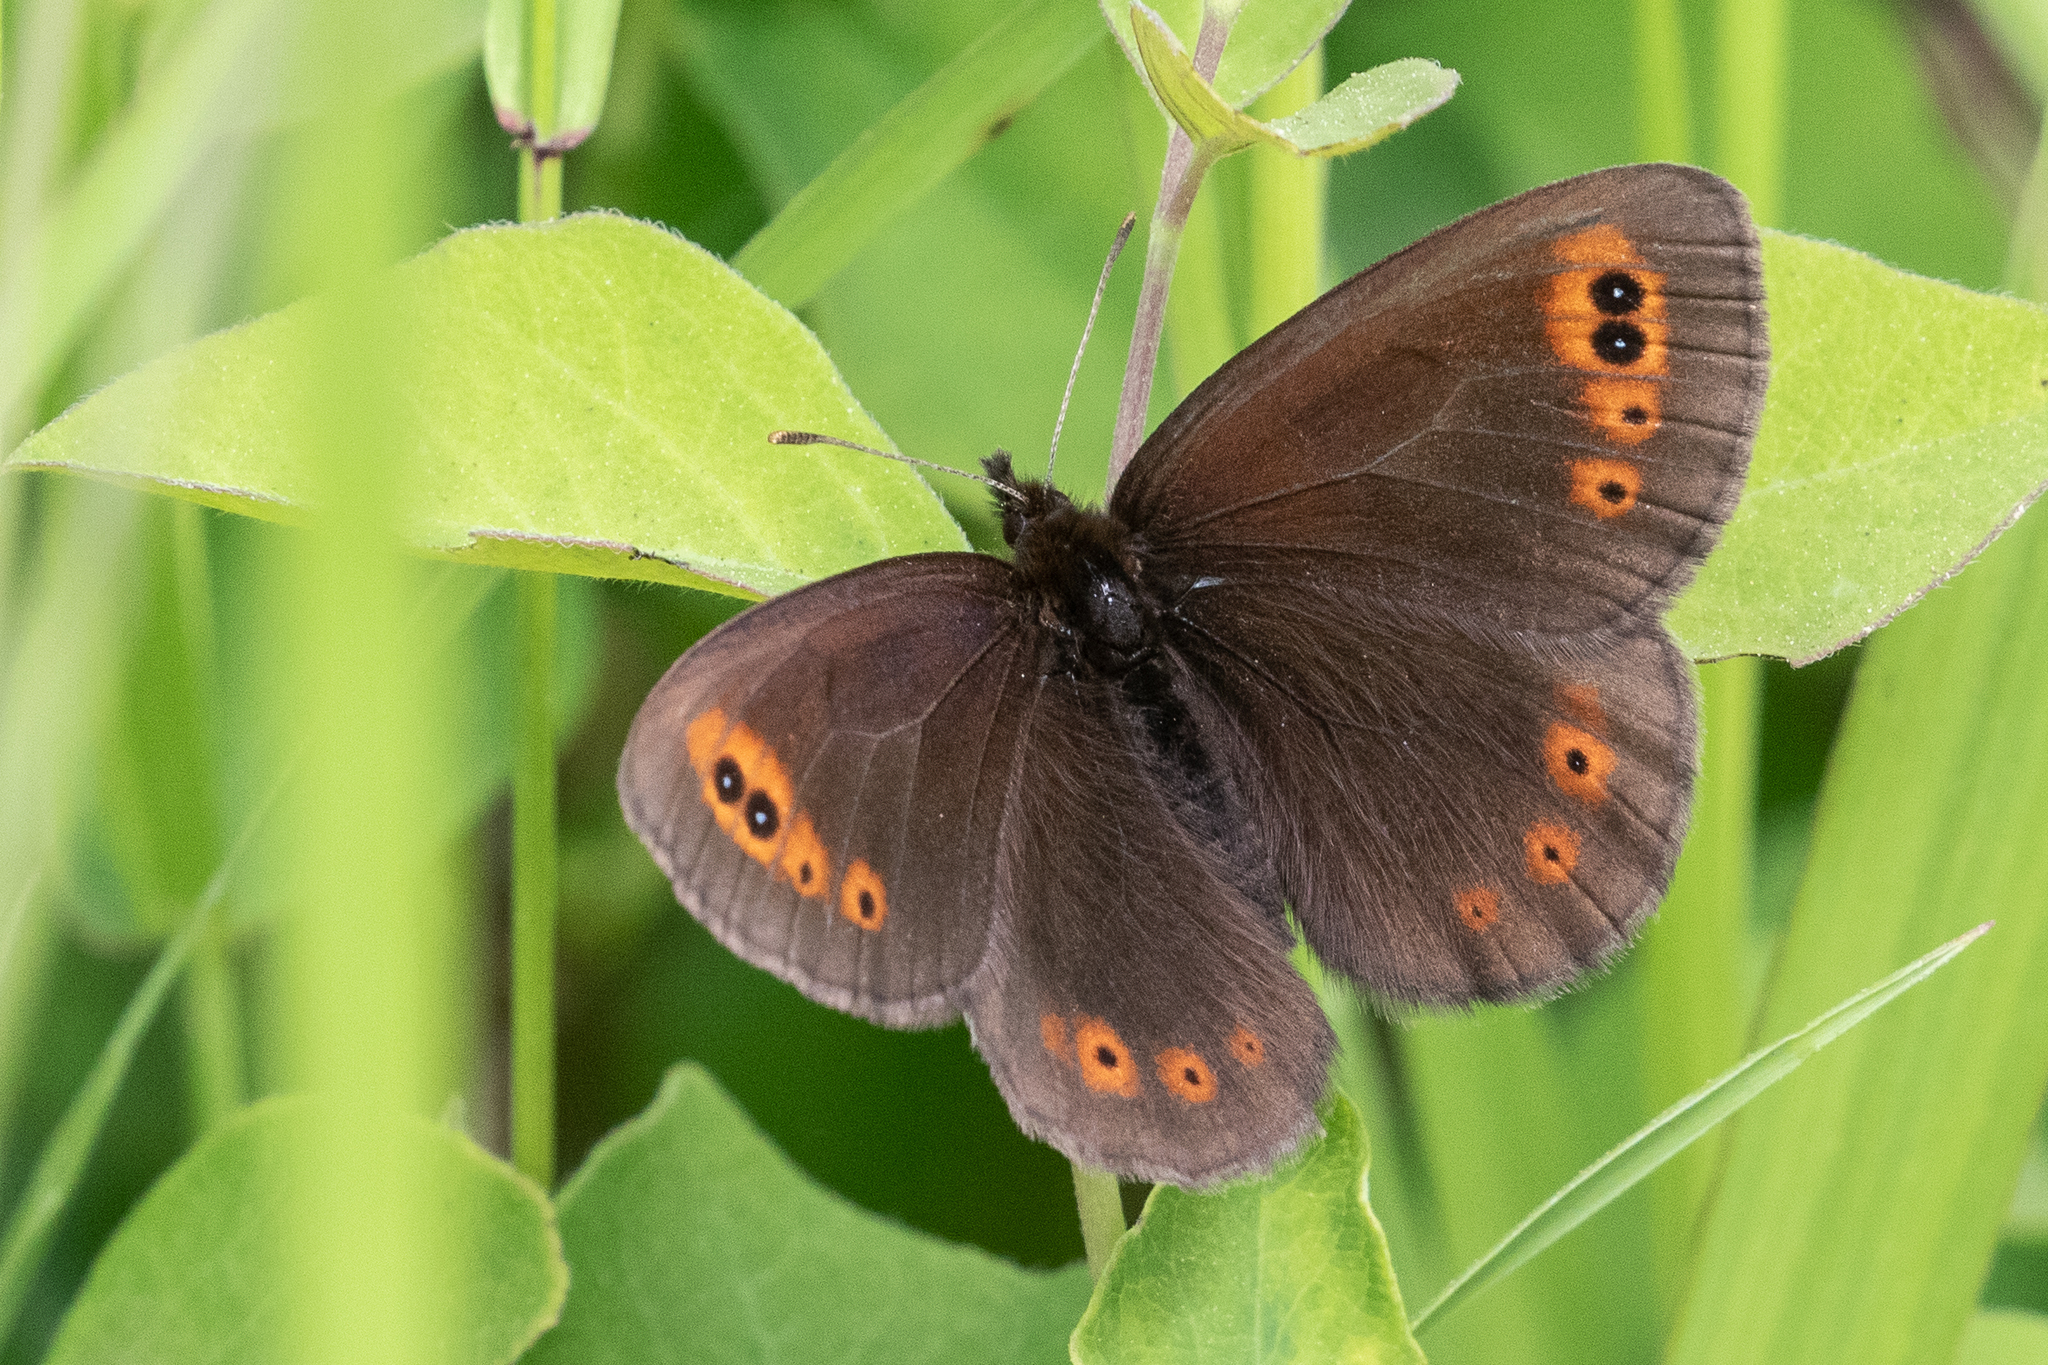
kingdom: Animalia
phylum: Arthropoda
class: Insecta
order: Lepidoptera
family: Nymphalidae
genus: Erebia
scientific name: Erebia epipsodea
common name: Common alpine
